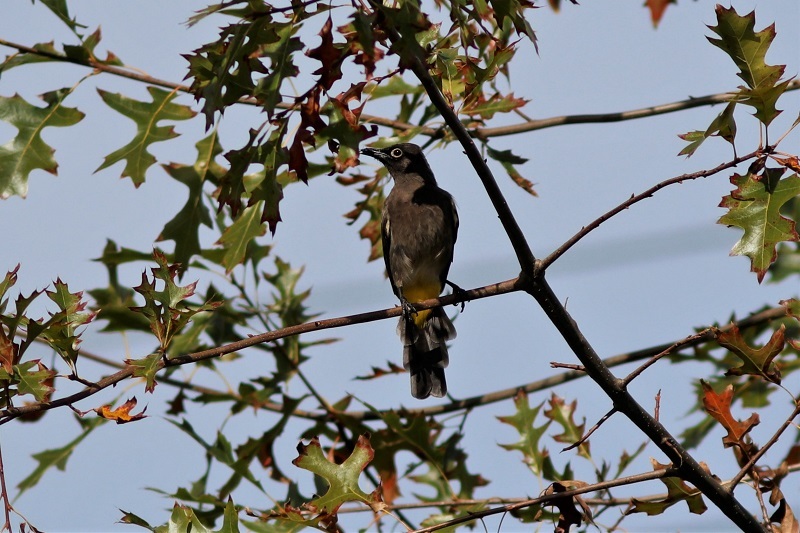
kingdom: Animalia
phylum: Chordata
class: Aves
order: Passeriformes
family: Pycnonotidae
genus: Pycnonotus
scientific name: Pycnonotus capensis
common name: Cape bulbul
